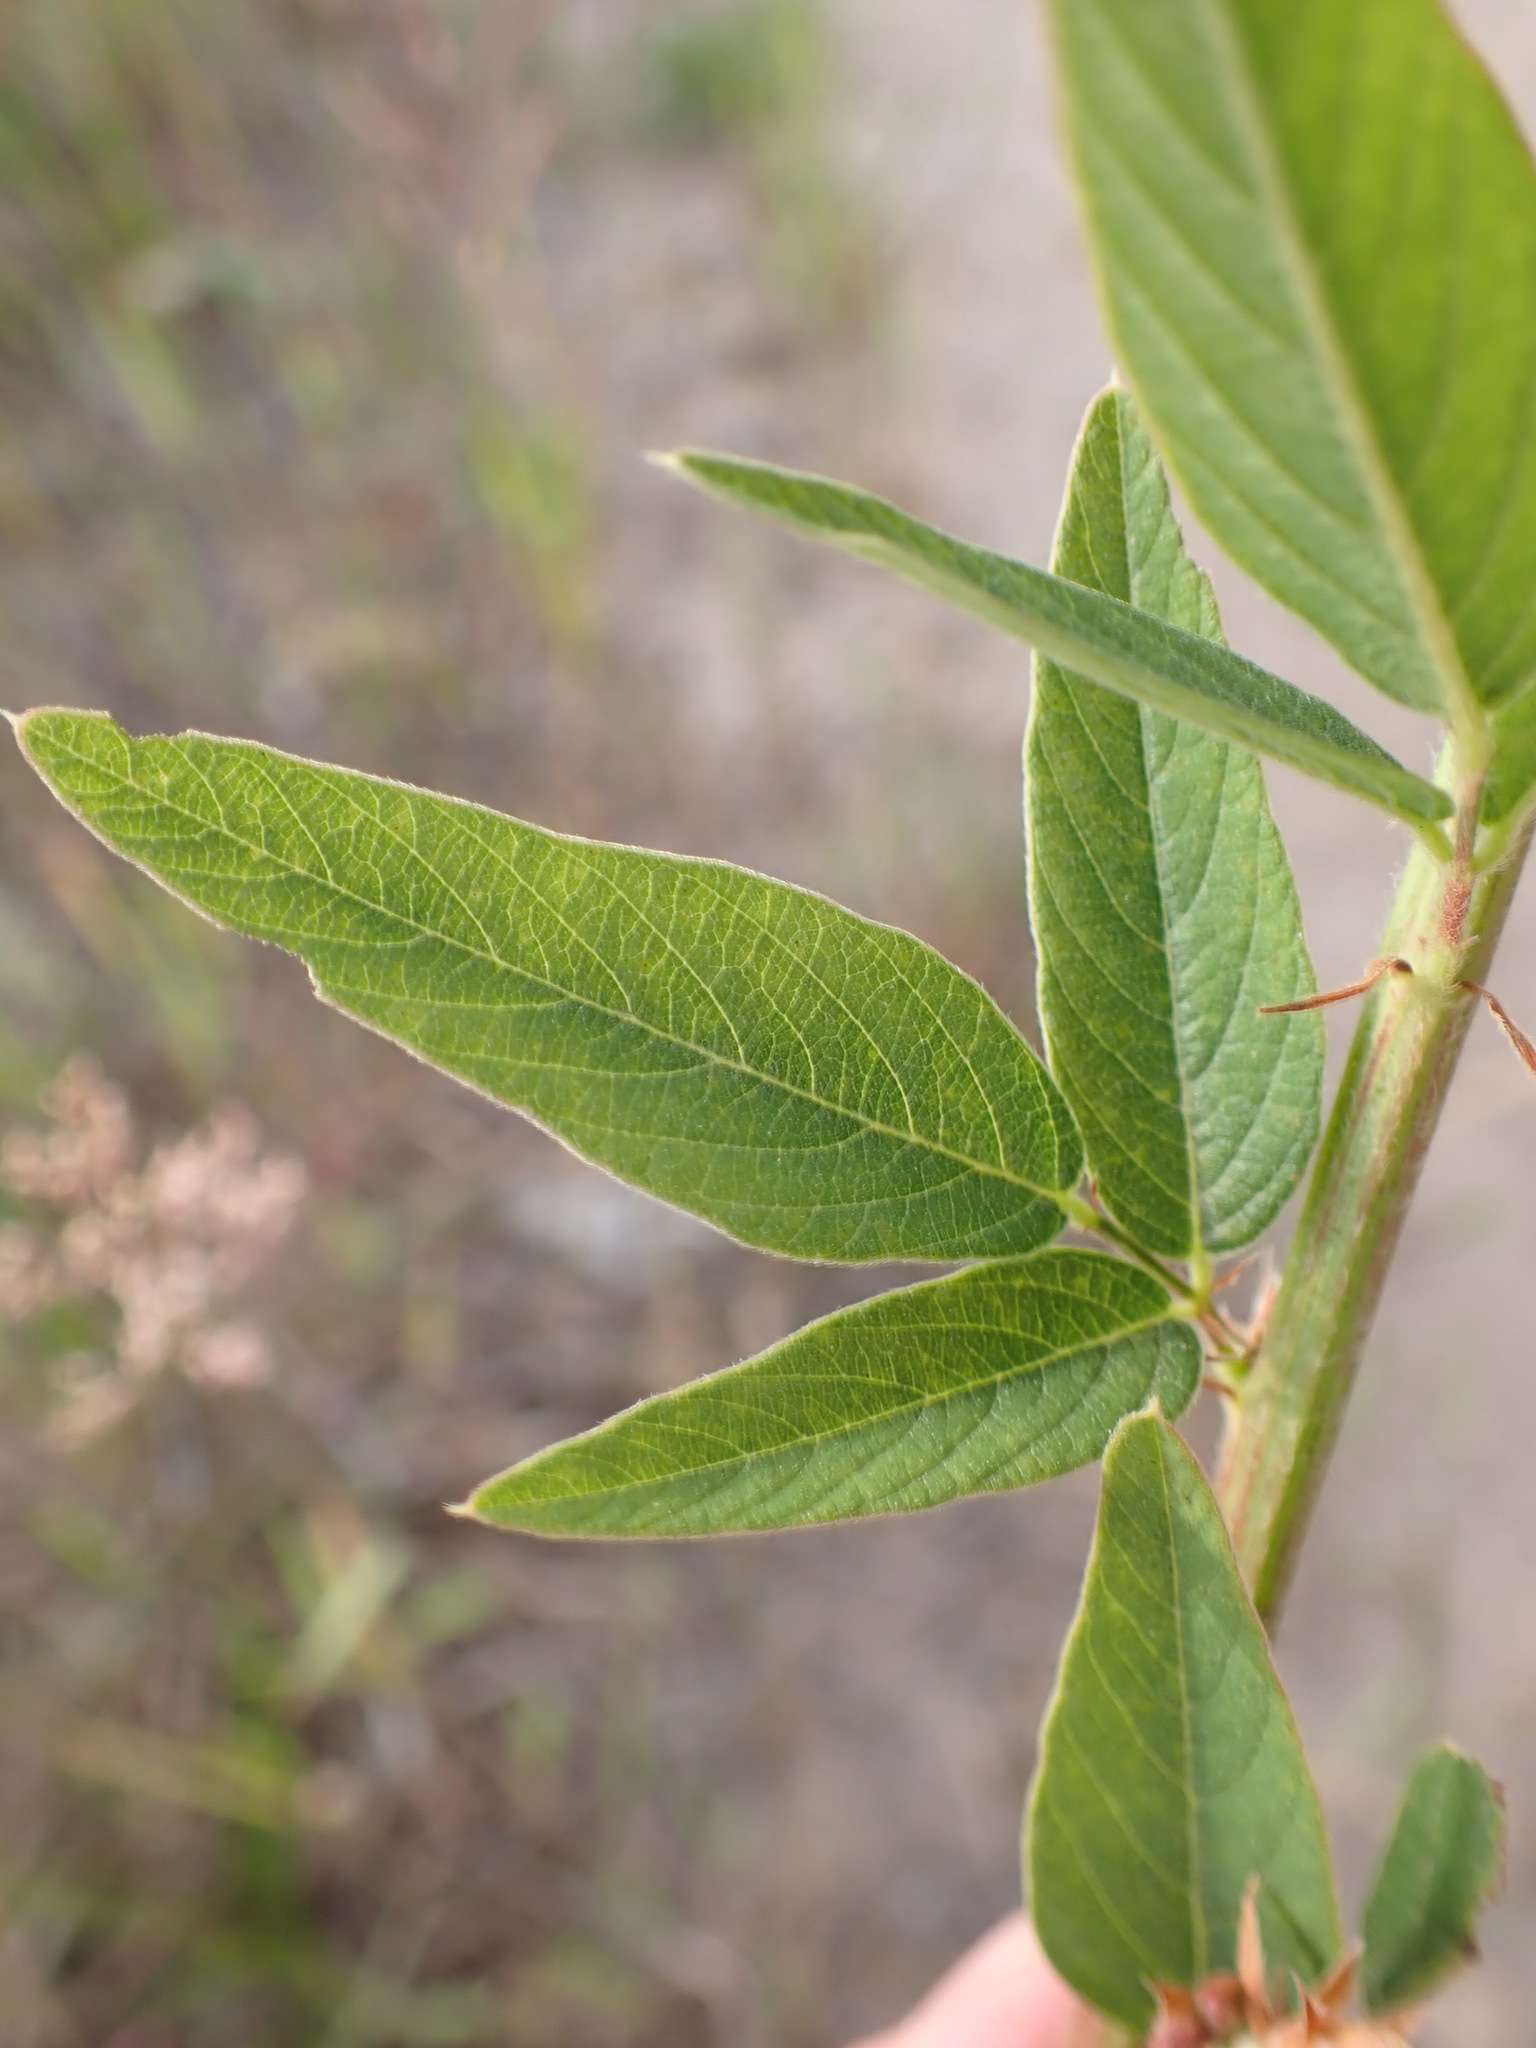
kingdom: Plantae
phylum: Tracheophyta
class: Magnoliopsida
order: Fabales
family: Fabaceae
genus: Desmodium
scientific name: Desmodium canadense
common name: Canada tick-trefoil
